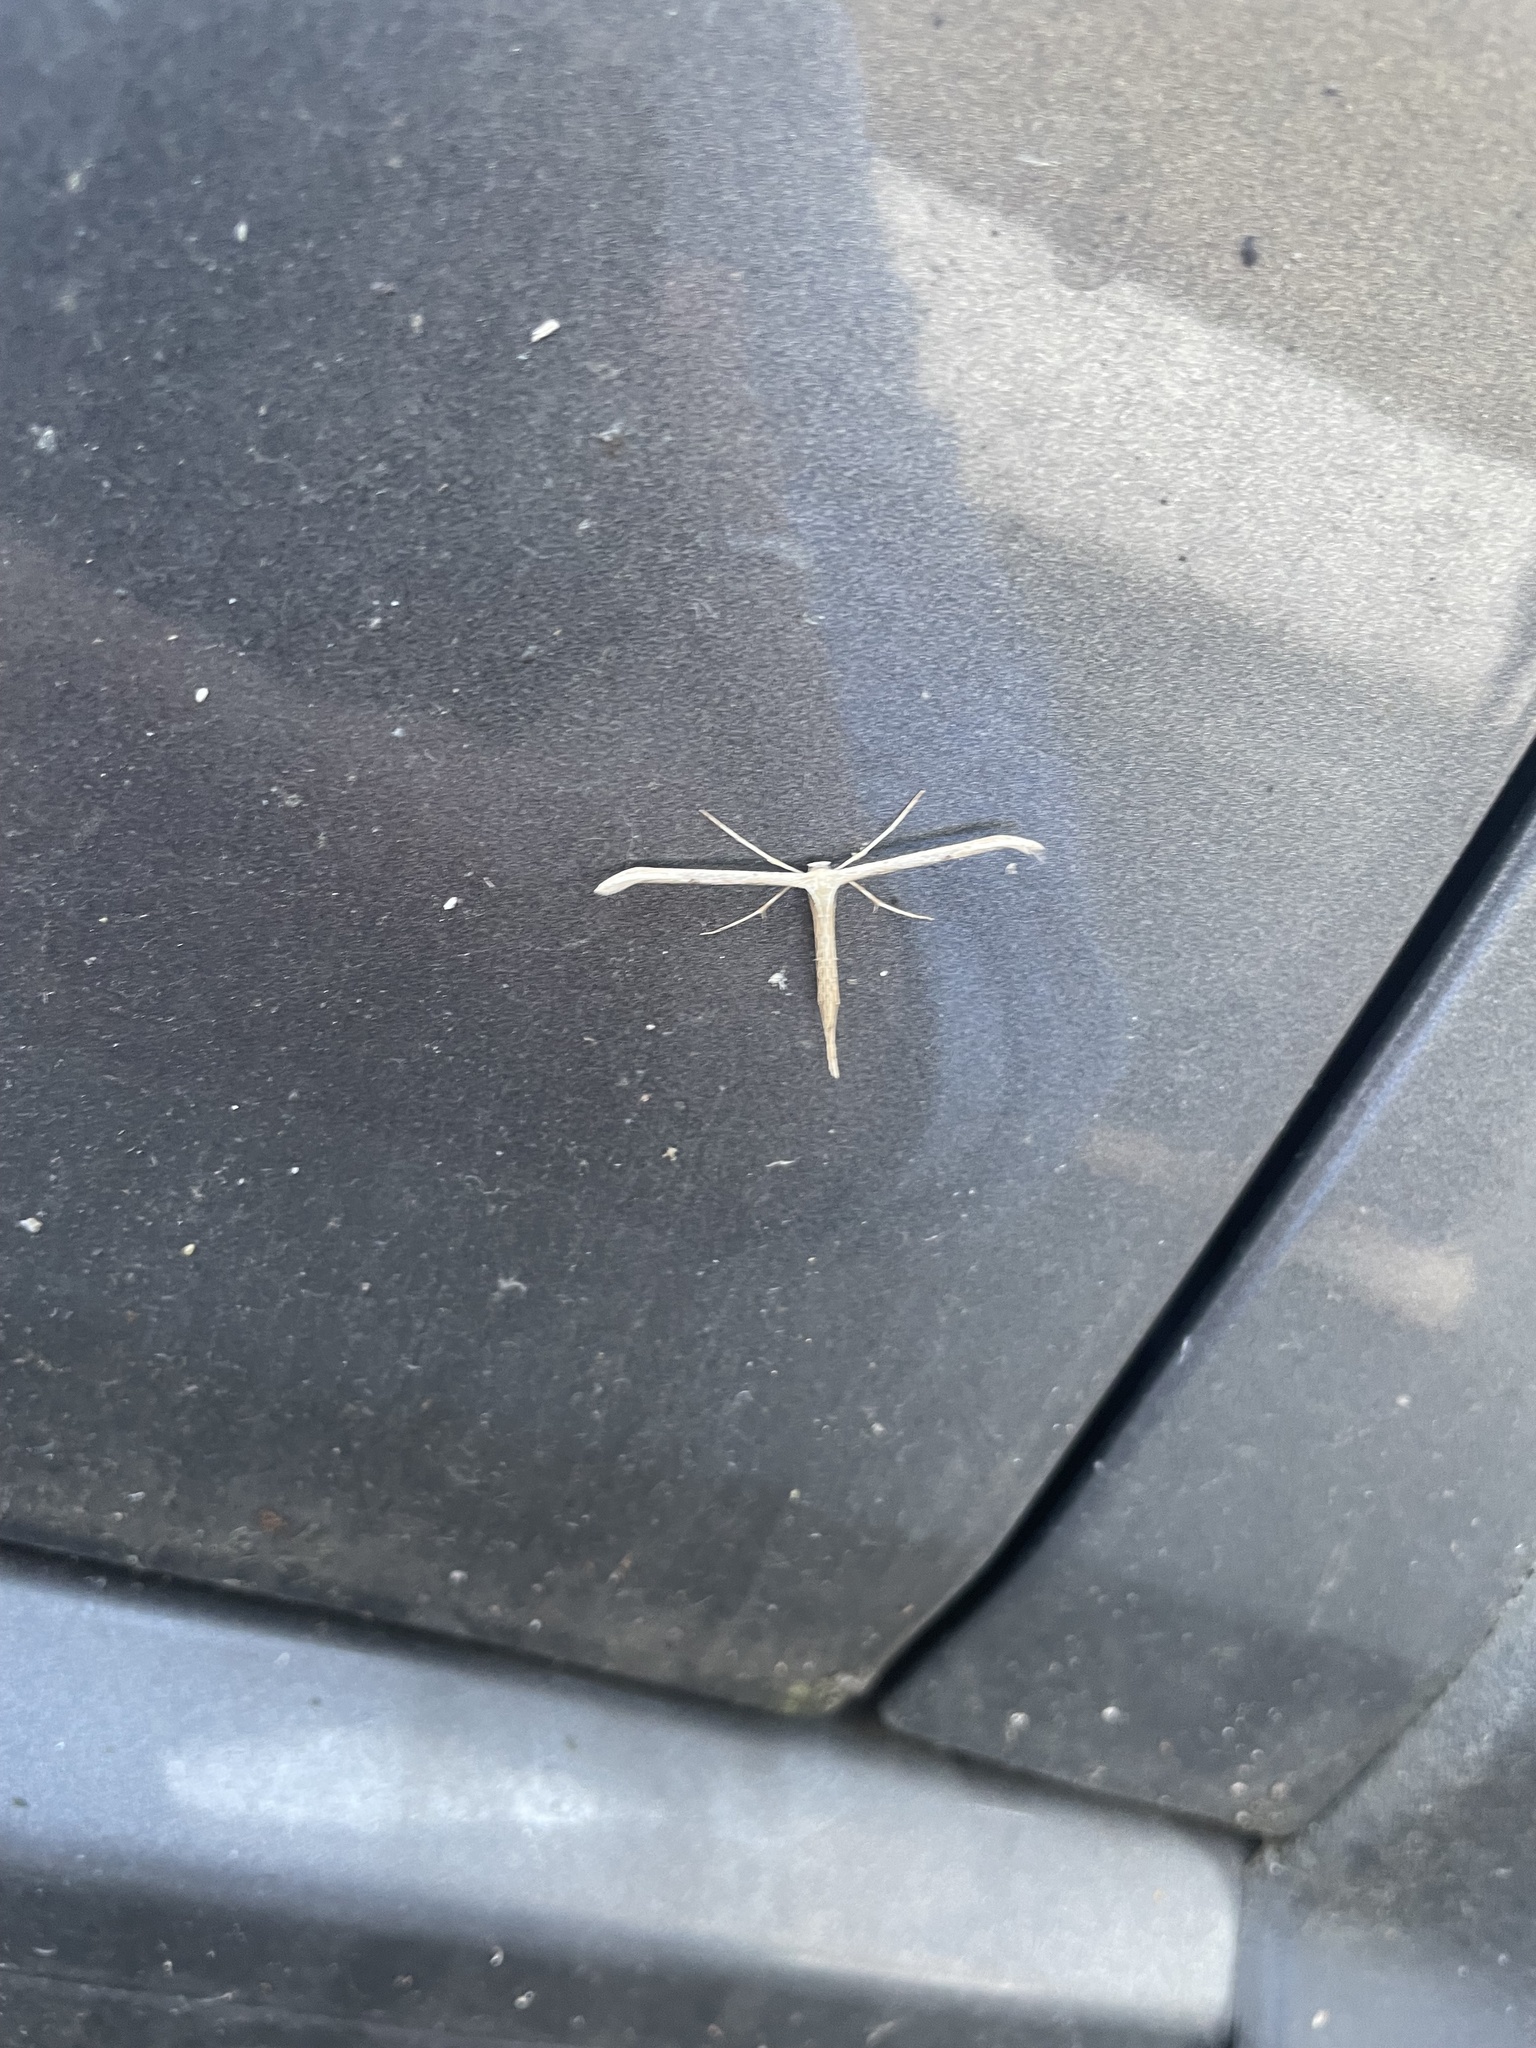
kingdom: Animalia
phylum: Arthropoda
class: Insecta
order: Lepidoptera
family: Pterophoridae
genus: Emmelina
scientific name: Emmelina monodactyla
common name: Common plume
